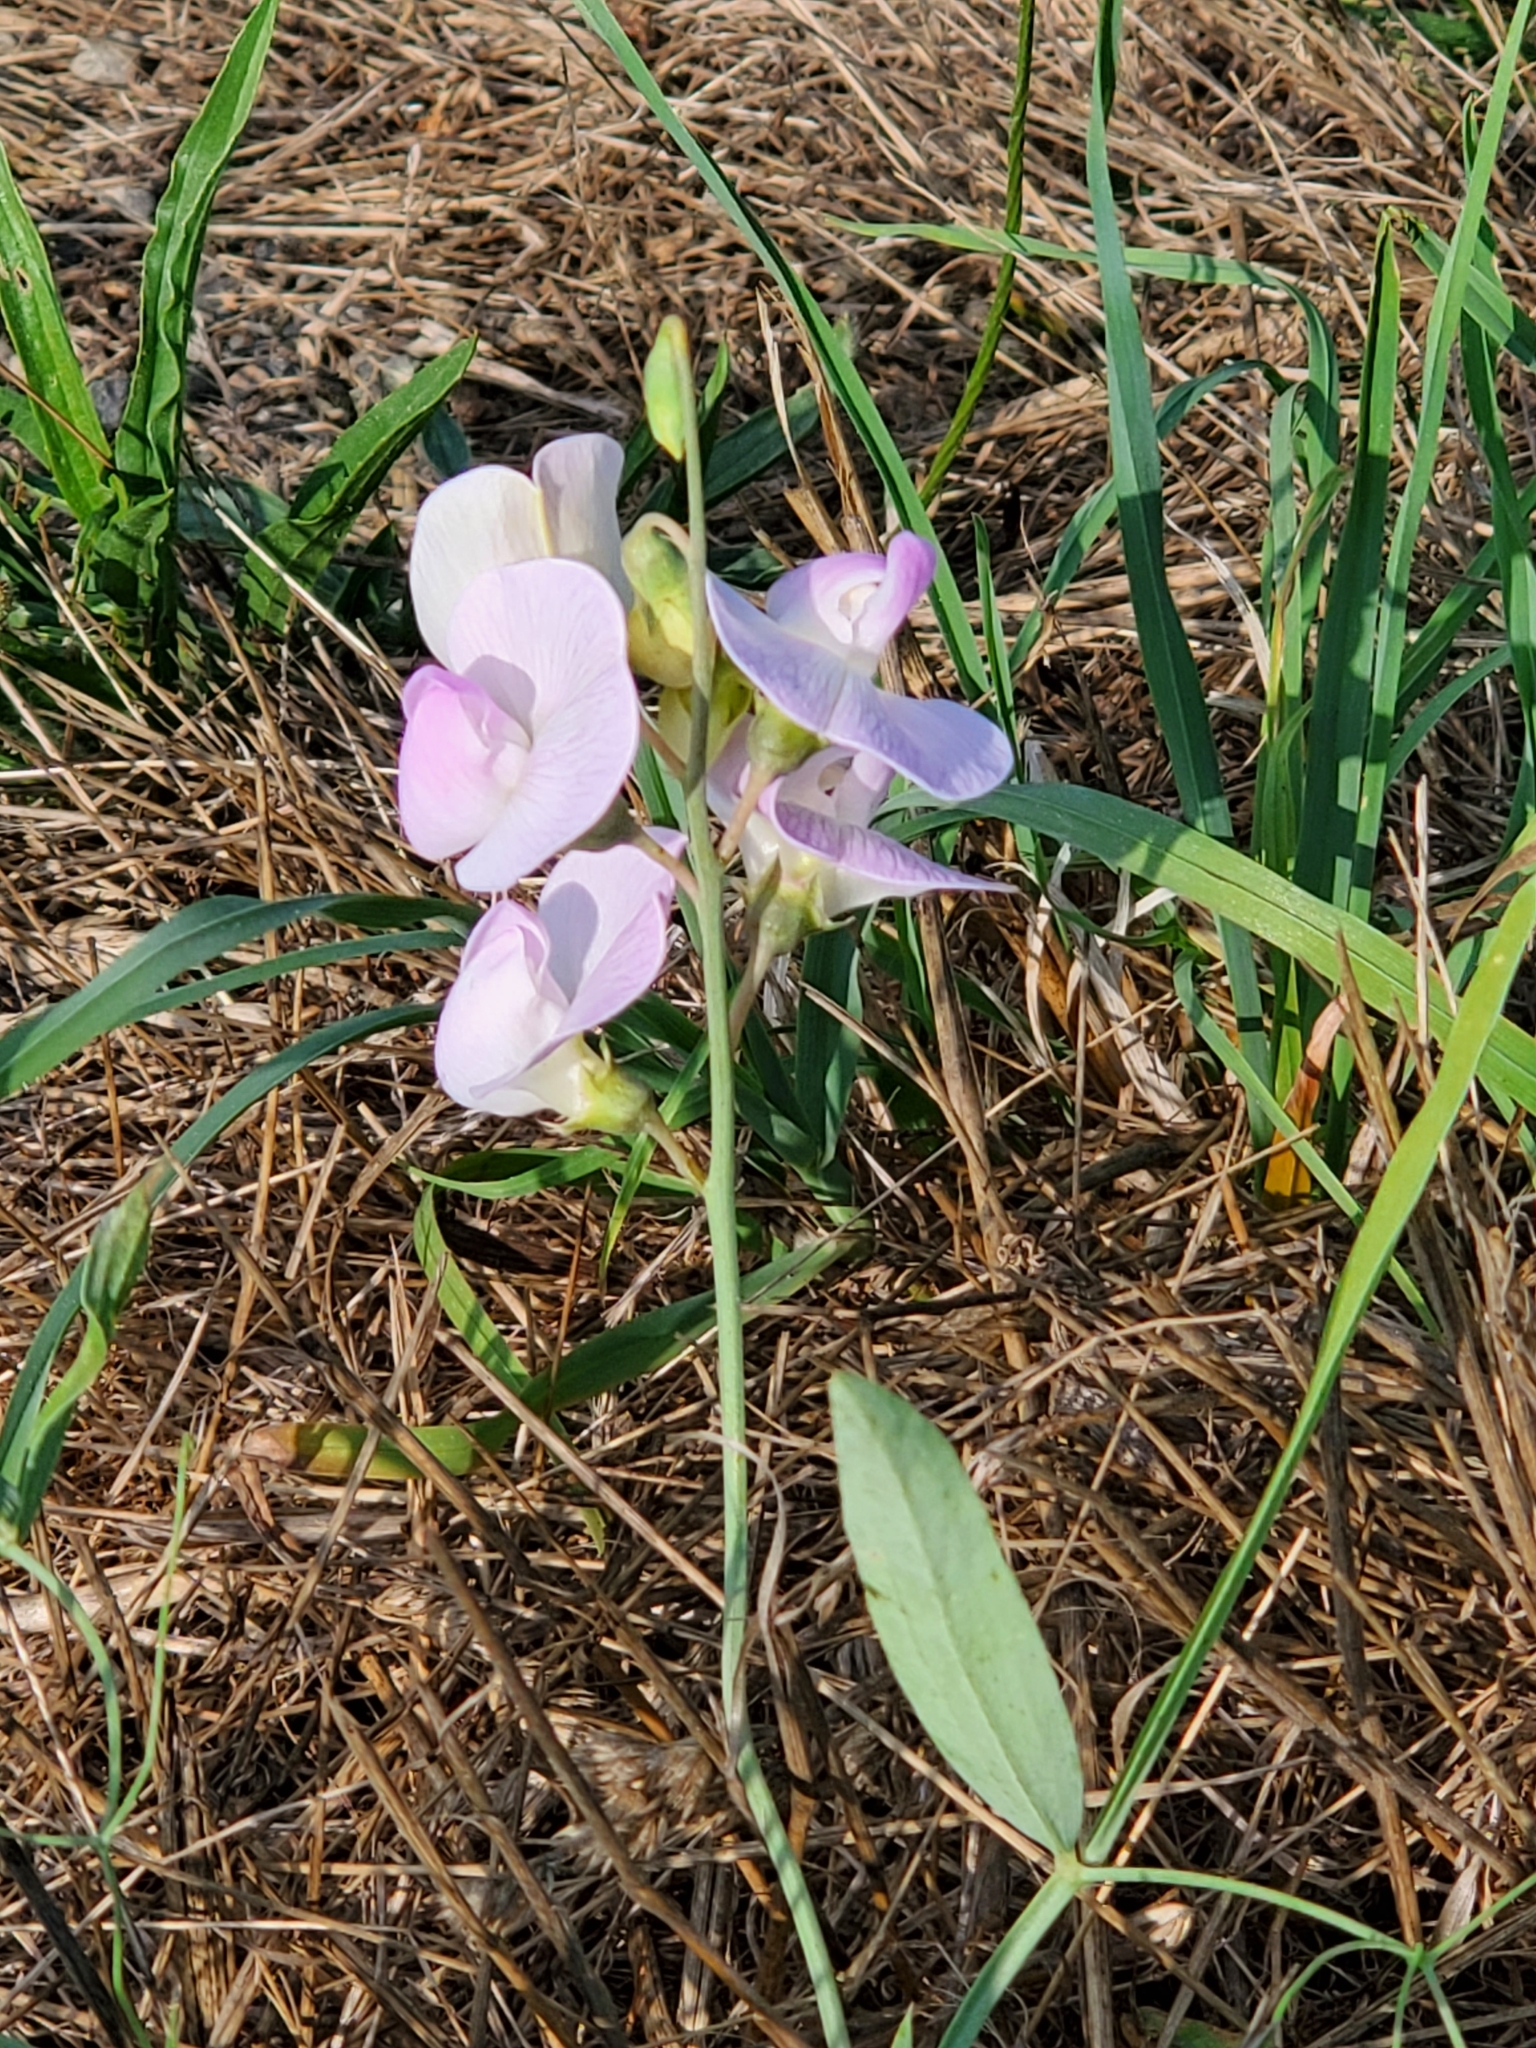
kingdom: Plantae
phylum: Tracheophyta
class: Magnoliopsida
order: Fabales
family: Fabaceae
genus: Lathyrus
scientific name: Lathyrus latifolius
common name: Perennial pea
